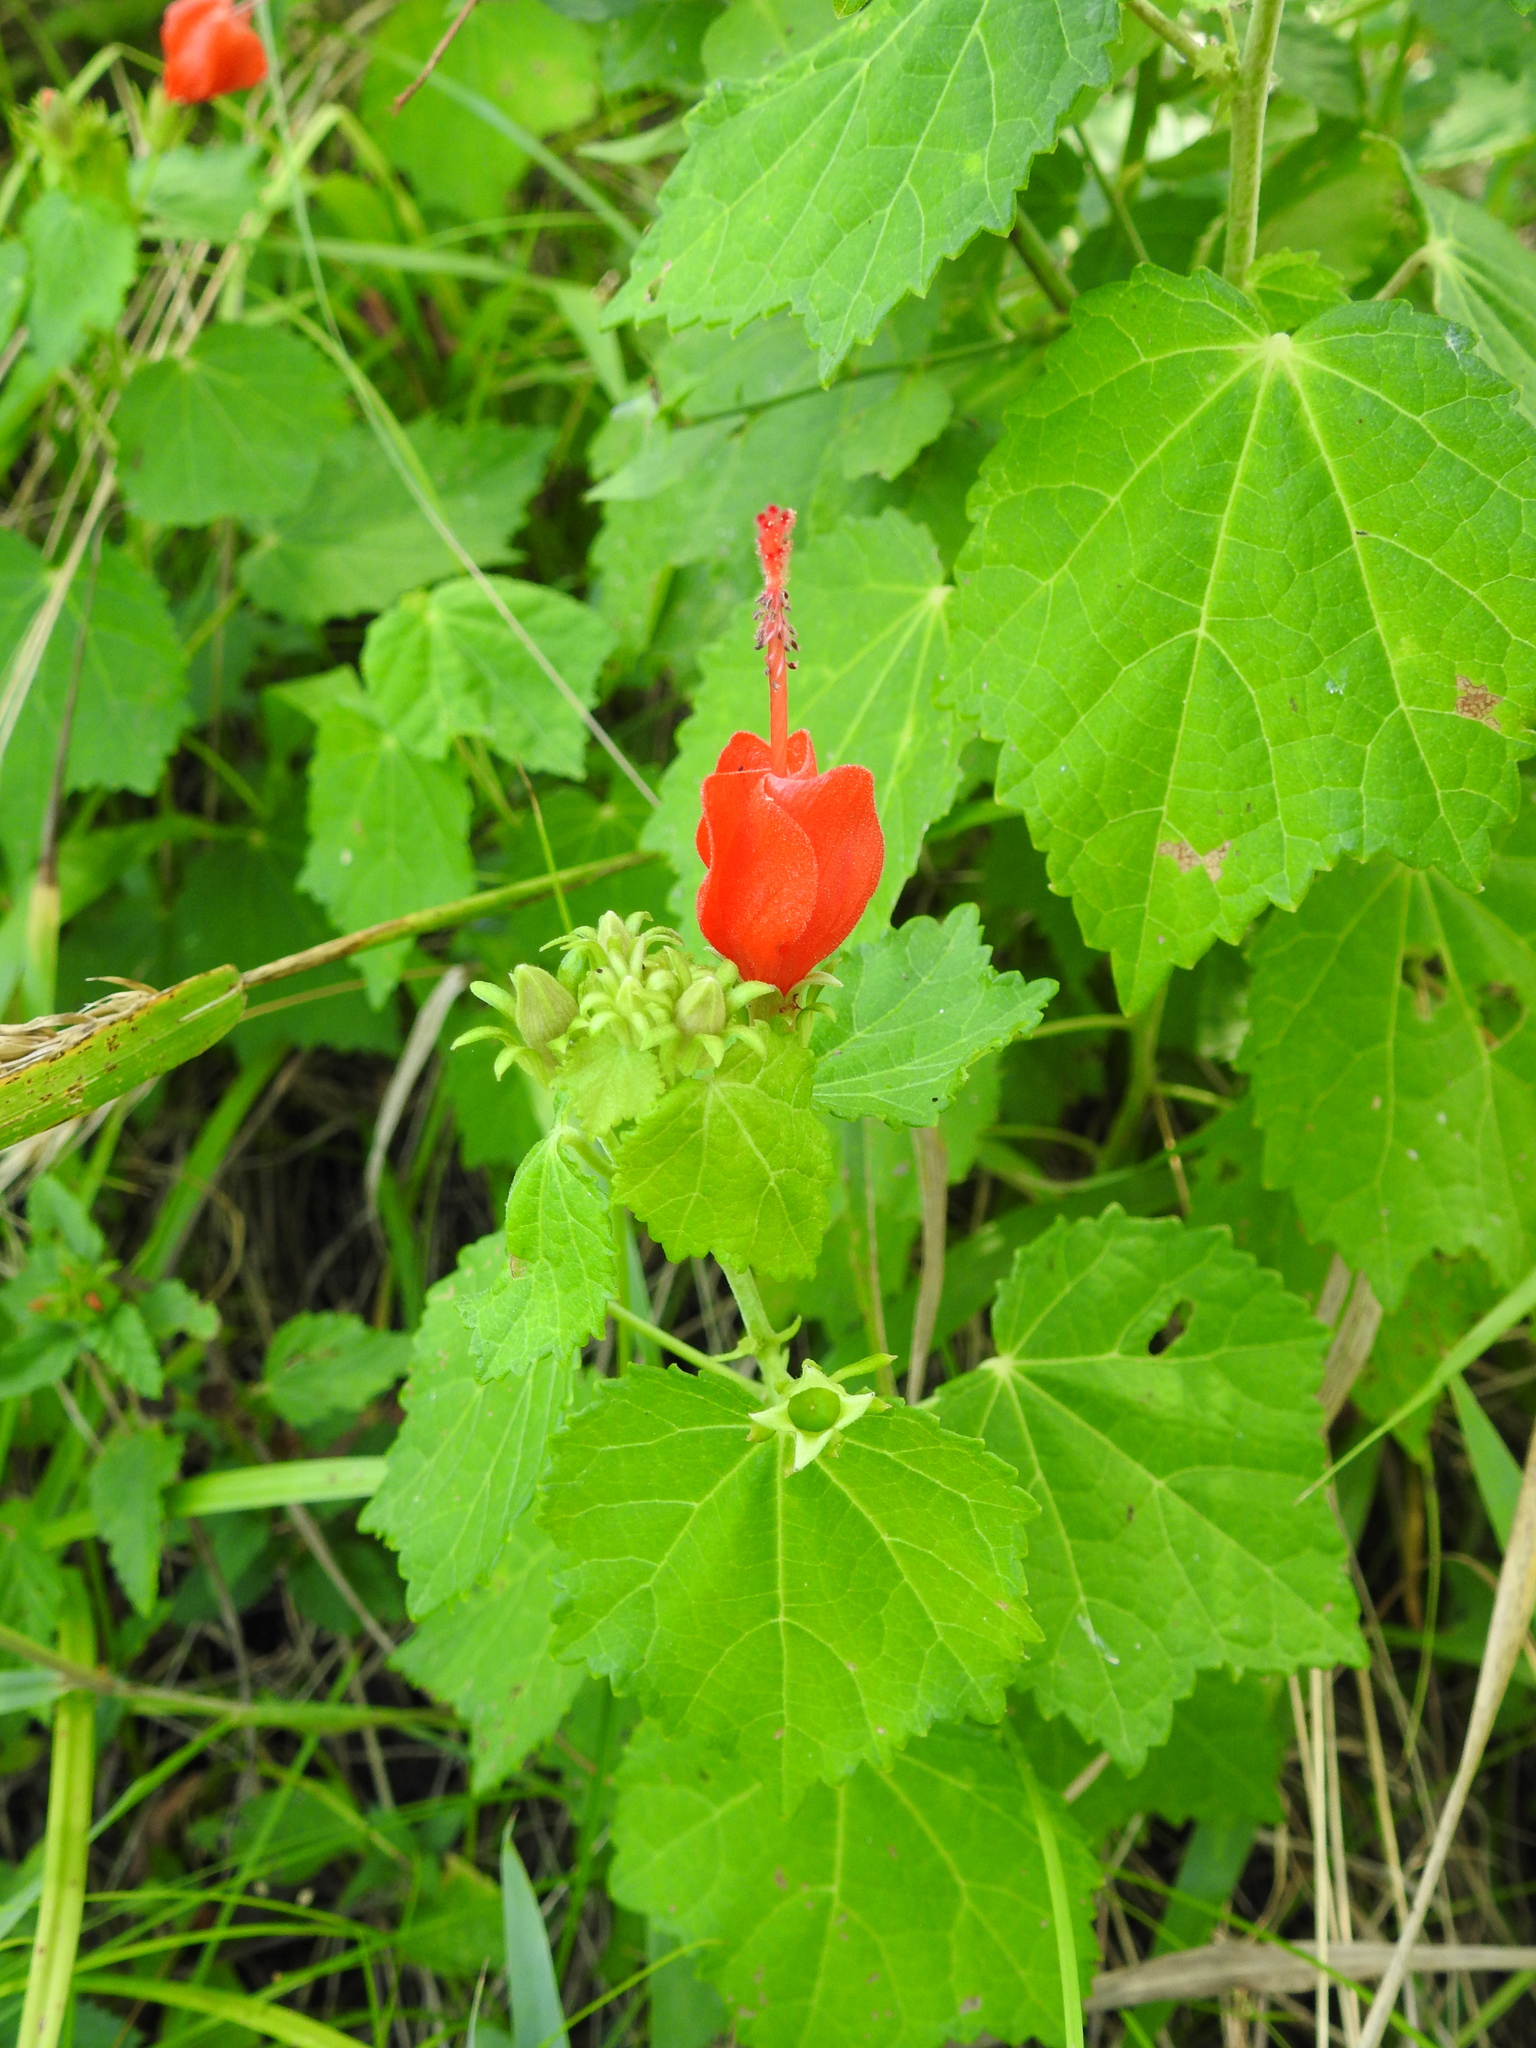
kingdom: Plantae
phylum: Tracheophyta
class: Magnoliopsida
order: Malvales
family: Malvaceae
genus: Malvaviscus
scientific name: Malvaviscus arboreus
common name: Wax mallow
